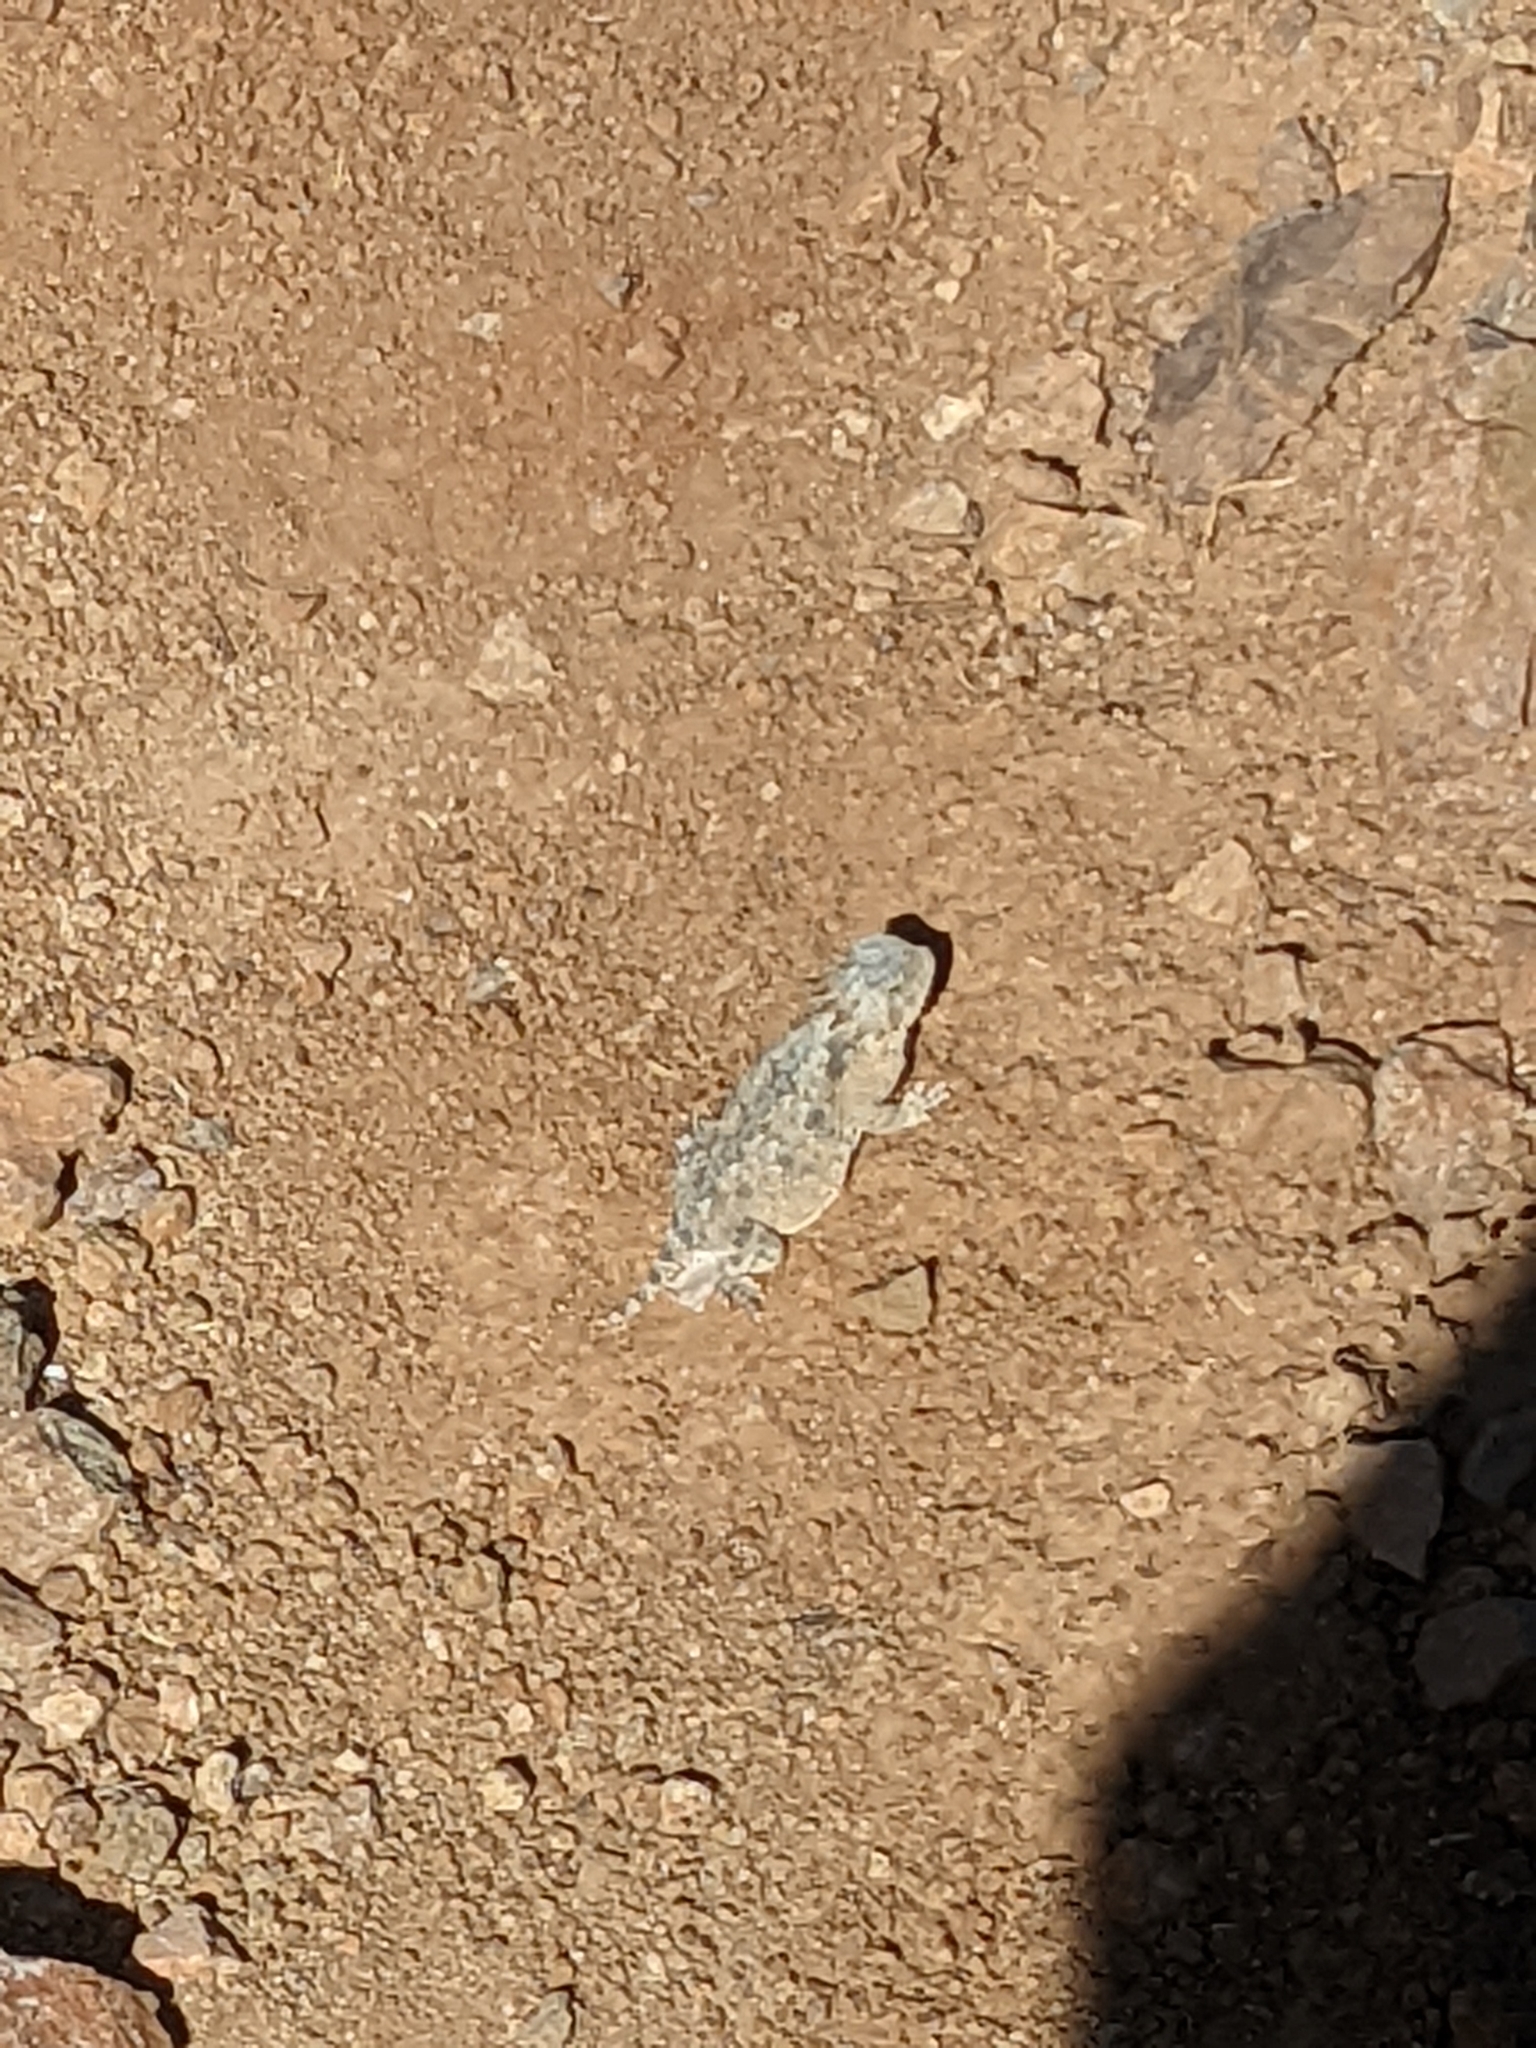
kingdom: Animalia
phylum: Chordata
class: Squamata
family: Phrynosomatidae
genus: Phrynosoma
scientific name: Phrynosoma solare
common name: Regal horned lizard
